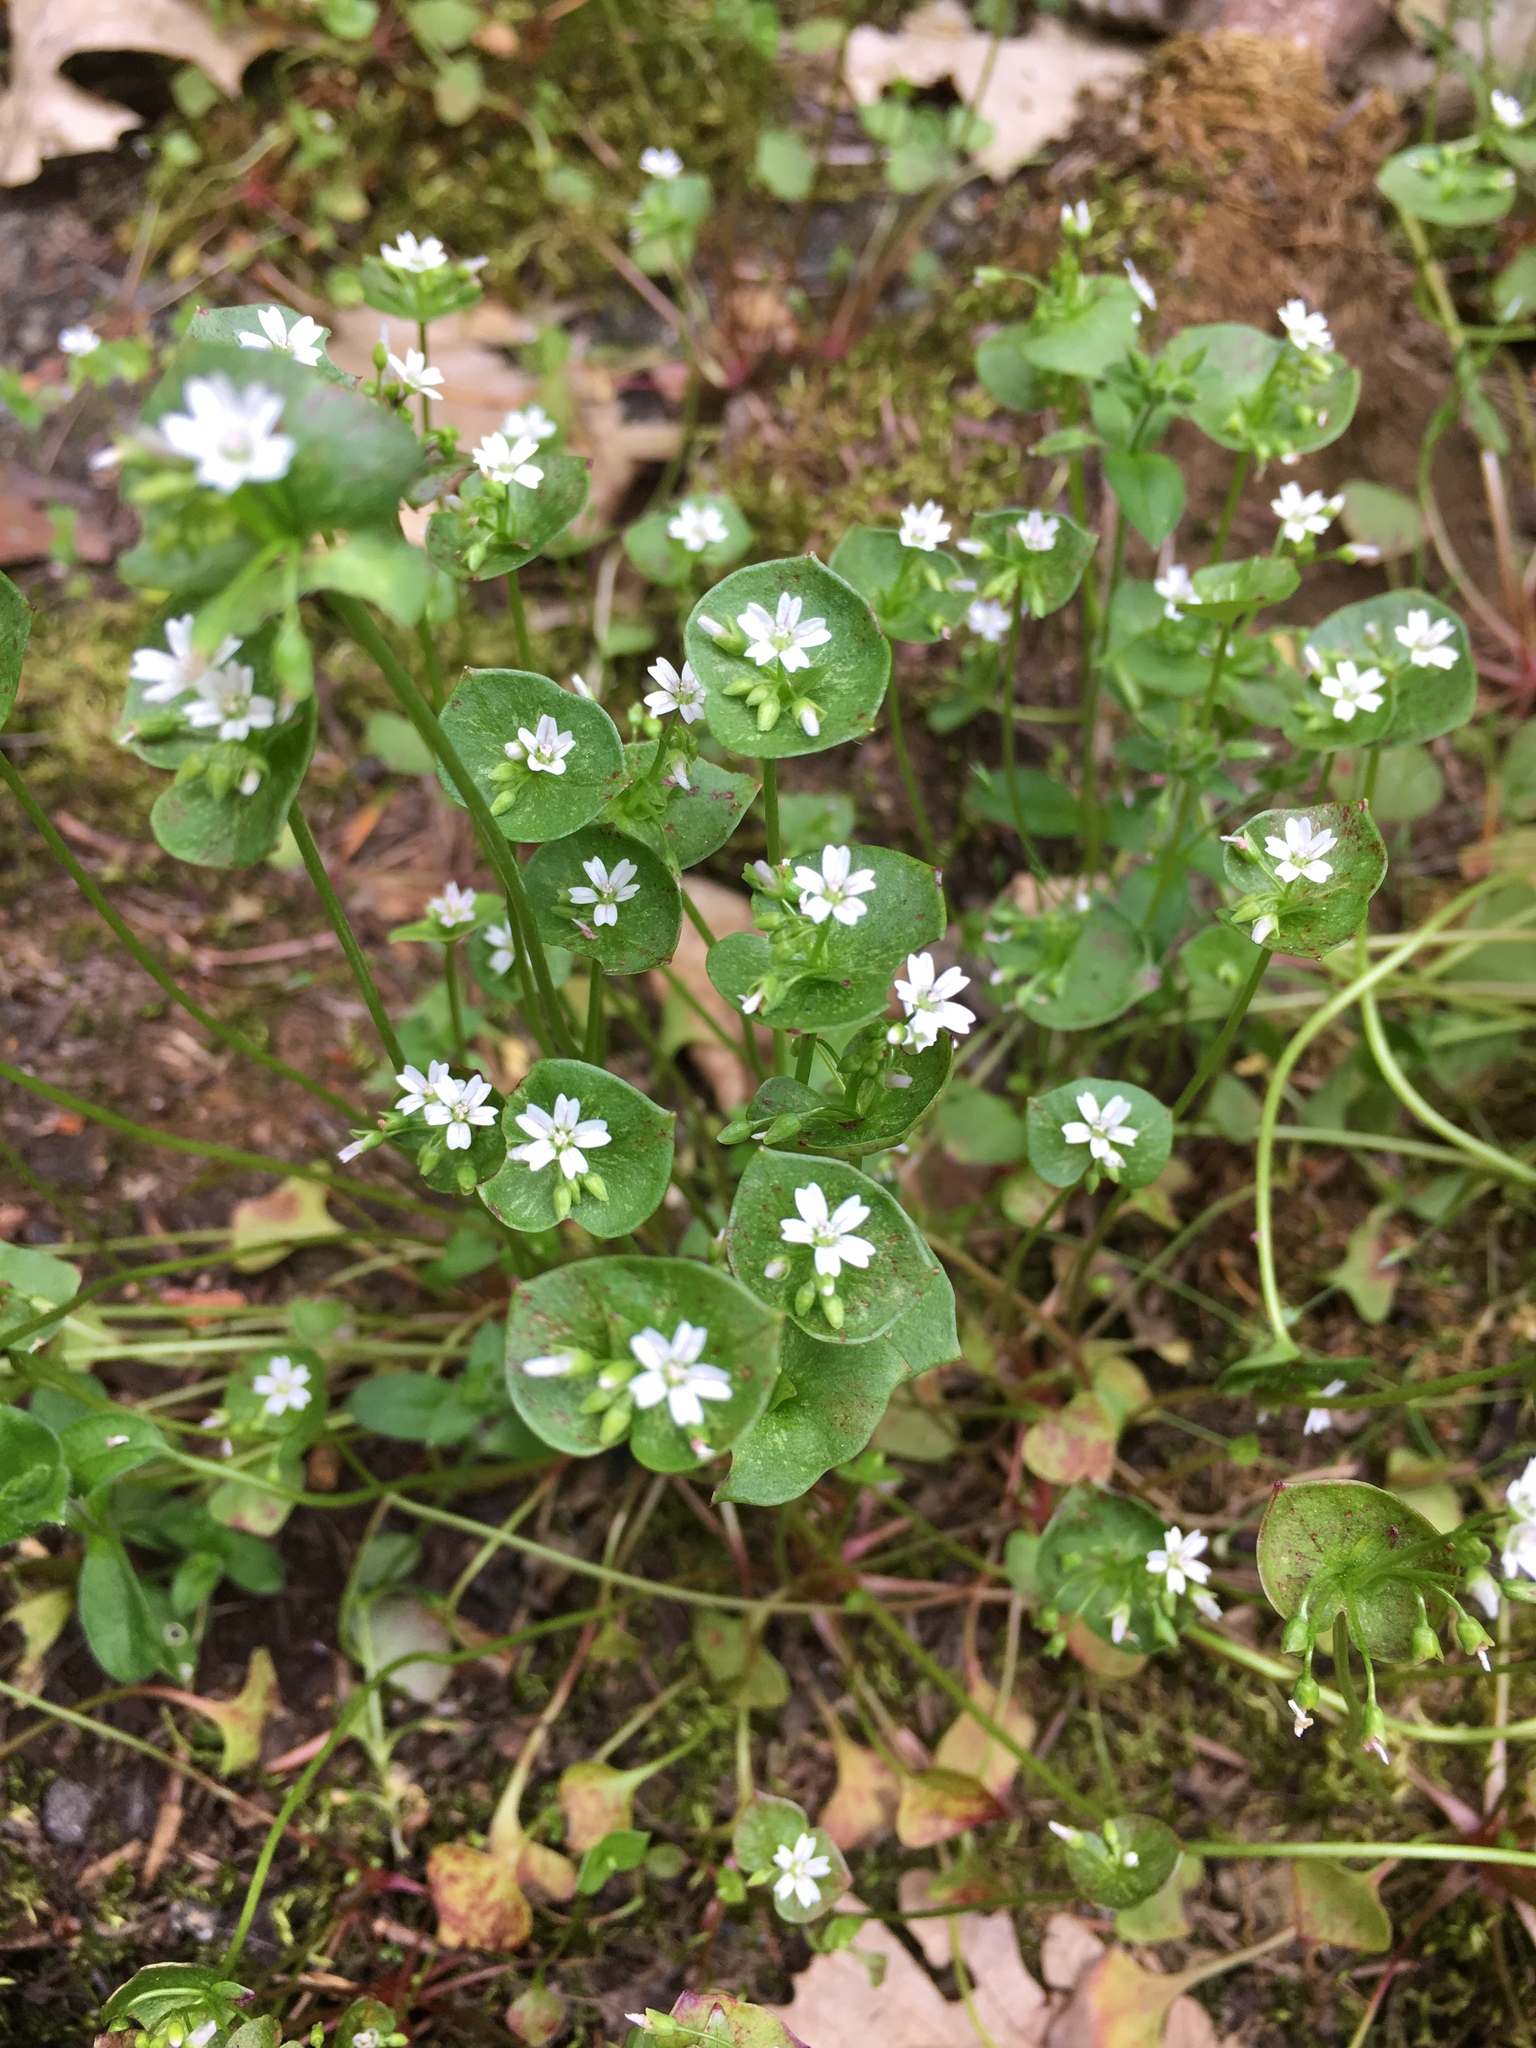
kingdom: Plantae
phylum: Tracheophyta
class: Magnoliopsida
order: Caryophyllales
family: Montiaceae
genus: Claytonia
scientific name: Claytonia perfoliata
